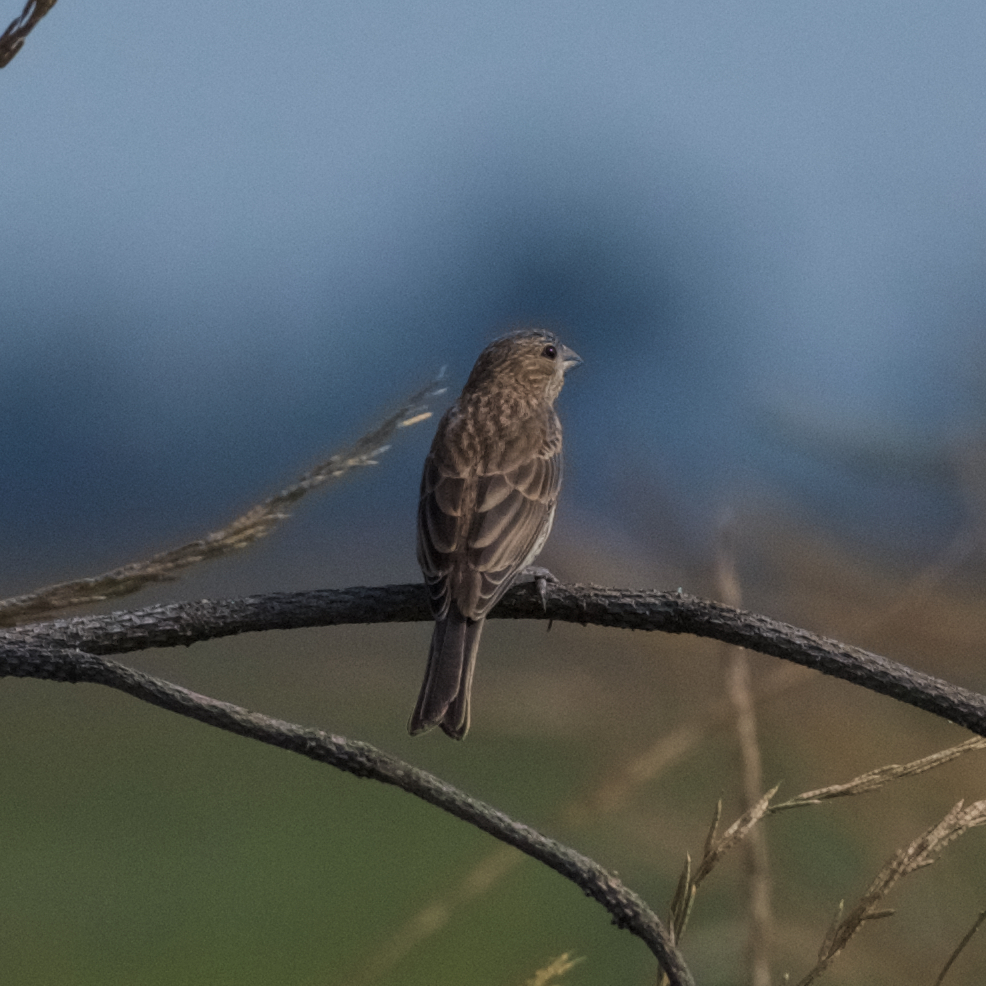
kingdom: Animalia
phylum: Chordata
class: Aves
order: Passeriformes
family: Fringillidae
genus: Haemorhous
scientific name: Haemorhous mexicanus
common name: House finch
